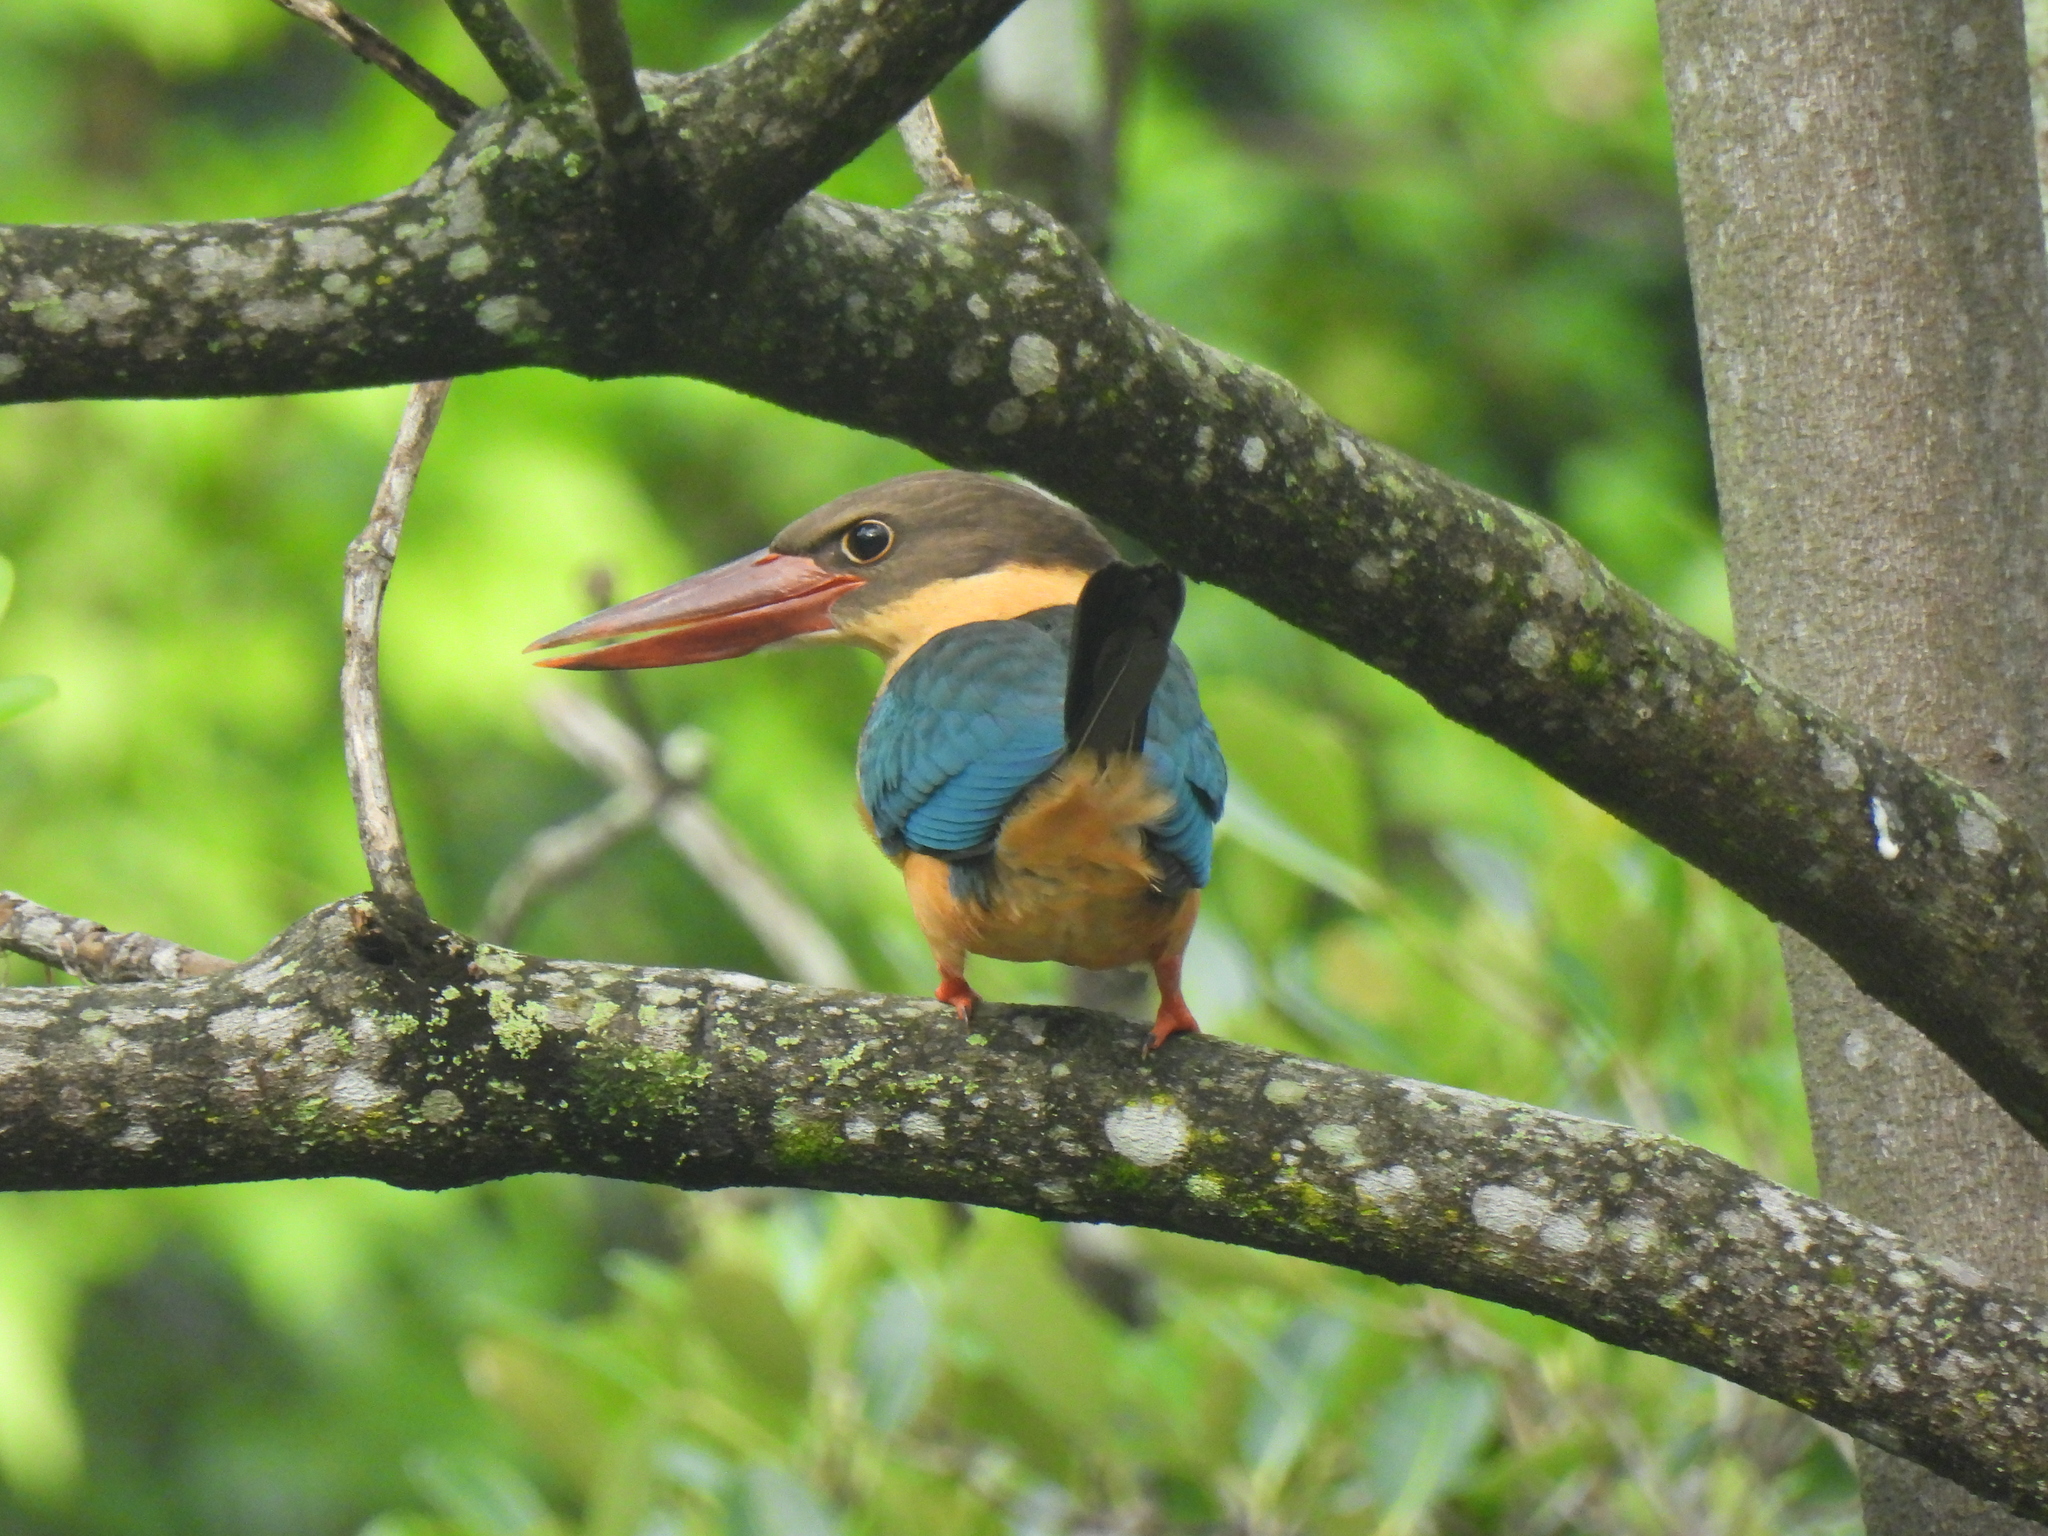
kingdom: Animalia
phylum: Chordata
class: Aves
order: Coraciiformes
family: Alcedinidae
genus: Pelargopsis
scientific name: Pelargopsis capensis
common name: Stork-billed kingfisher
